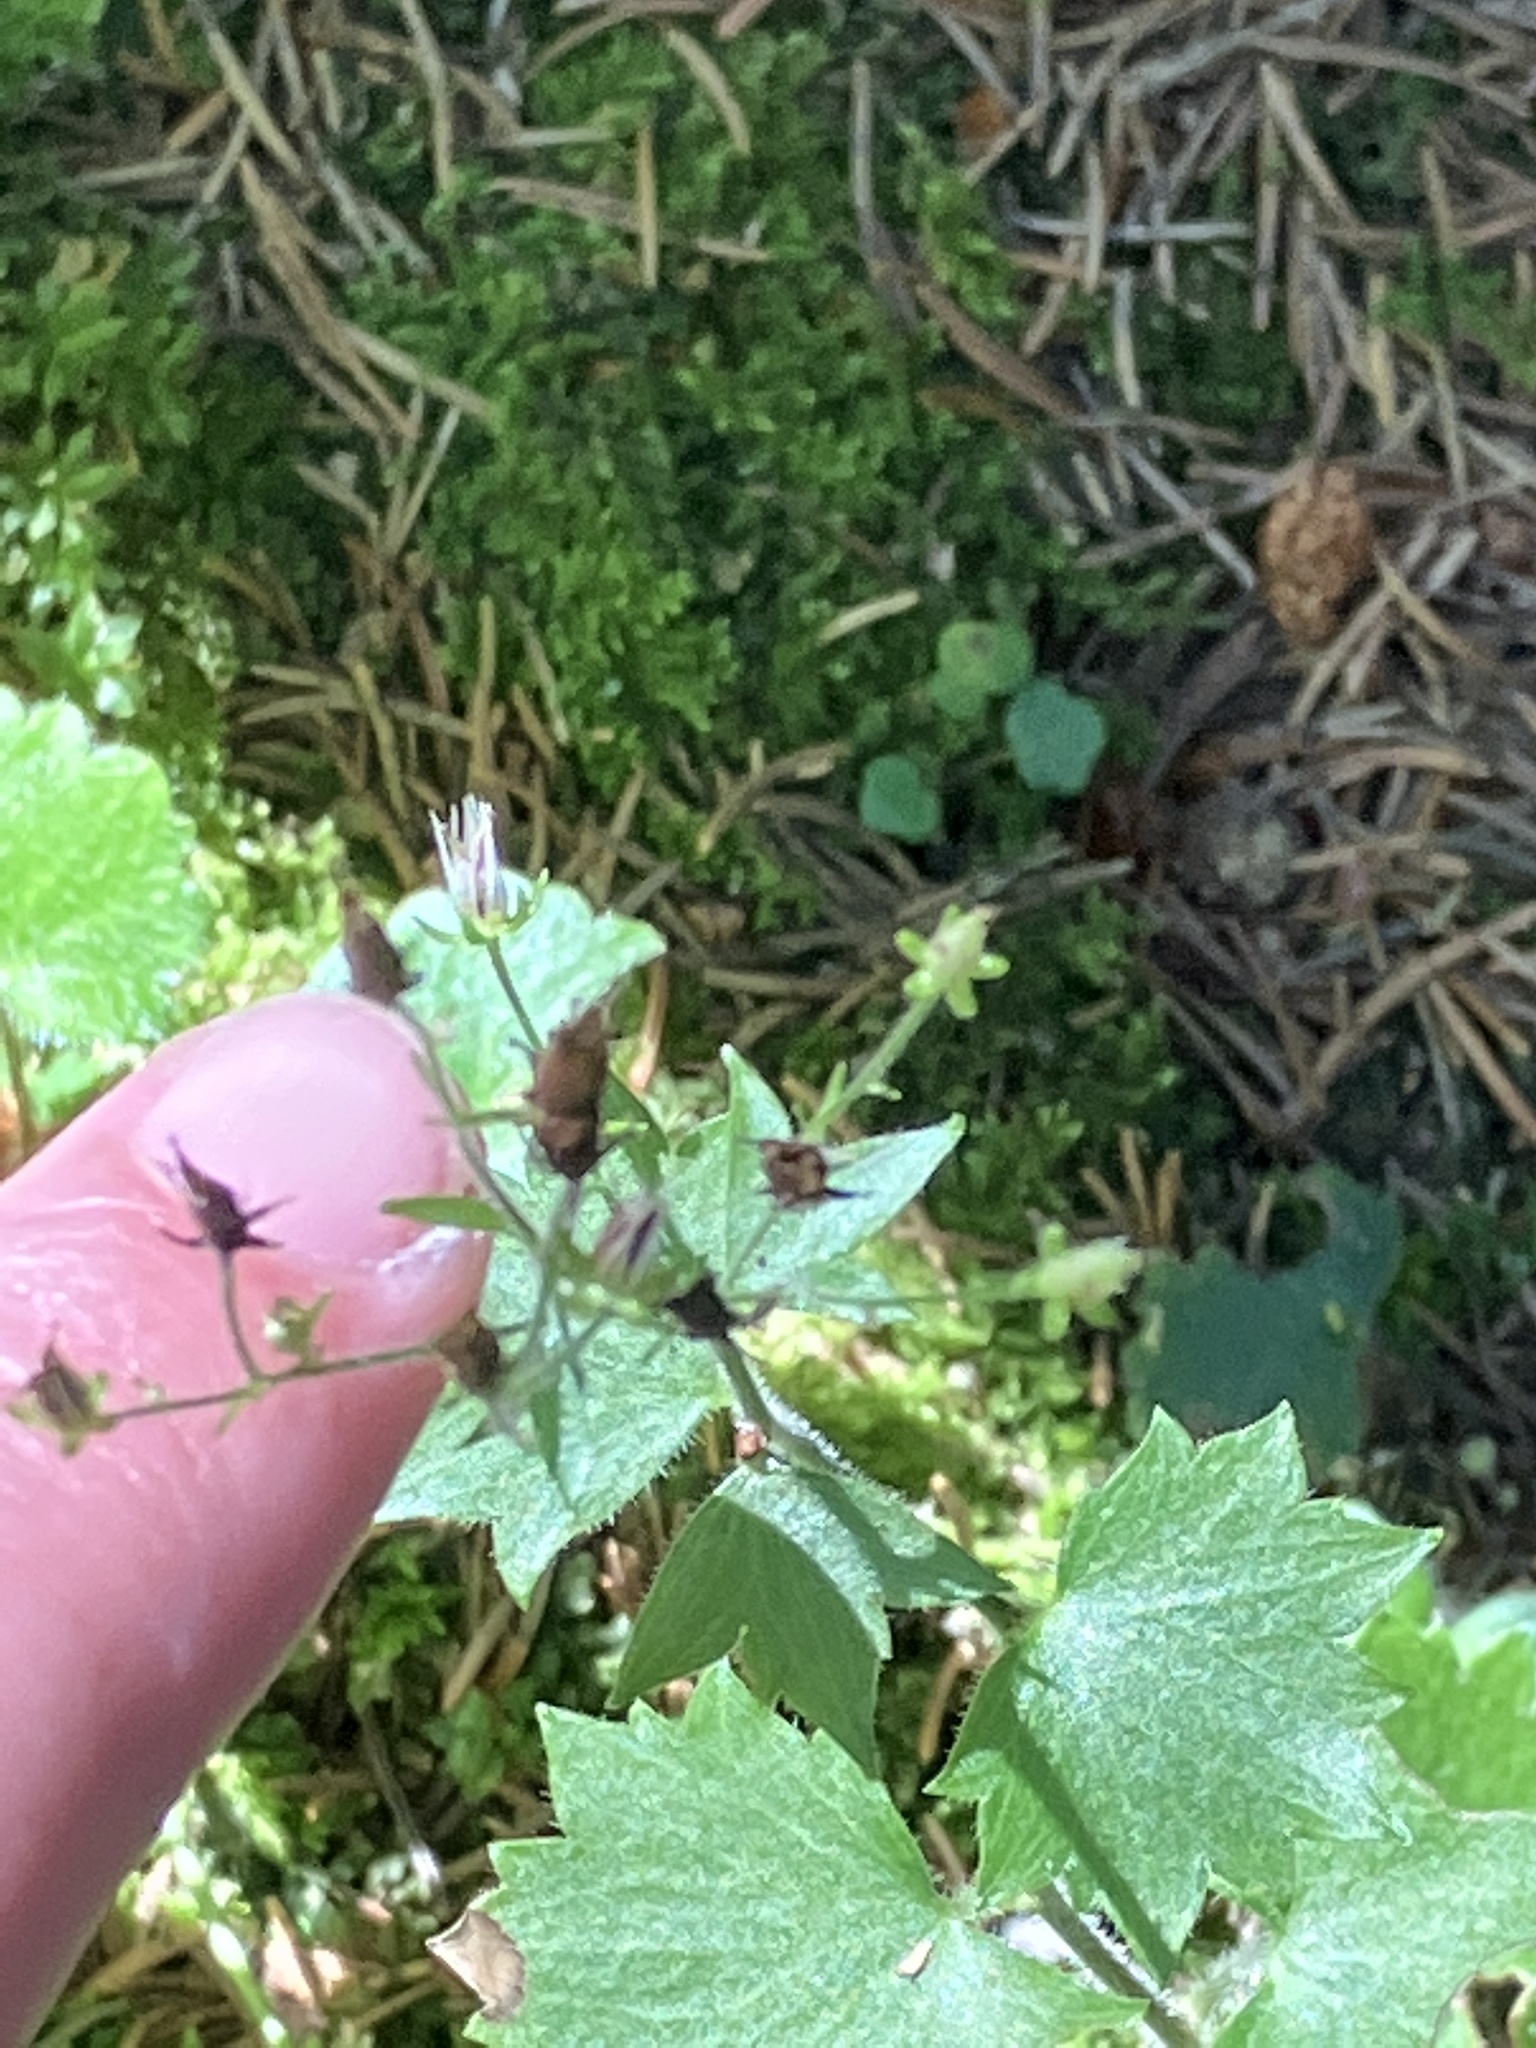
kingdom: Plantae
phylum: Tracheophyta
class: Magnoliopsida
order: Saxifragales
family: Saxifragaceae
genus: Saxifraga
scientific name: Saxifraga rotundifolia
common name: Round-leaved saxifrage
